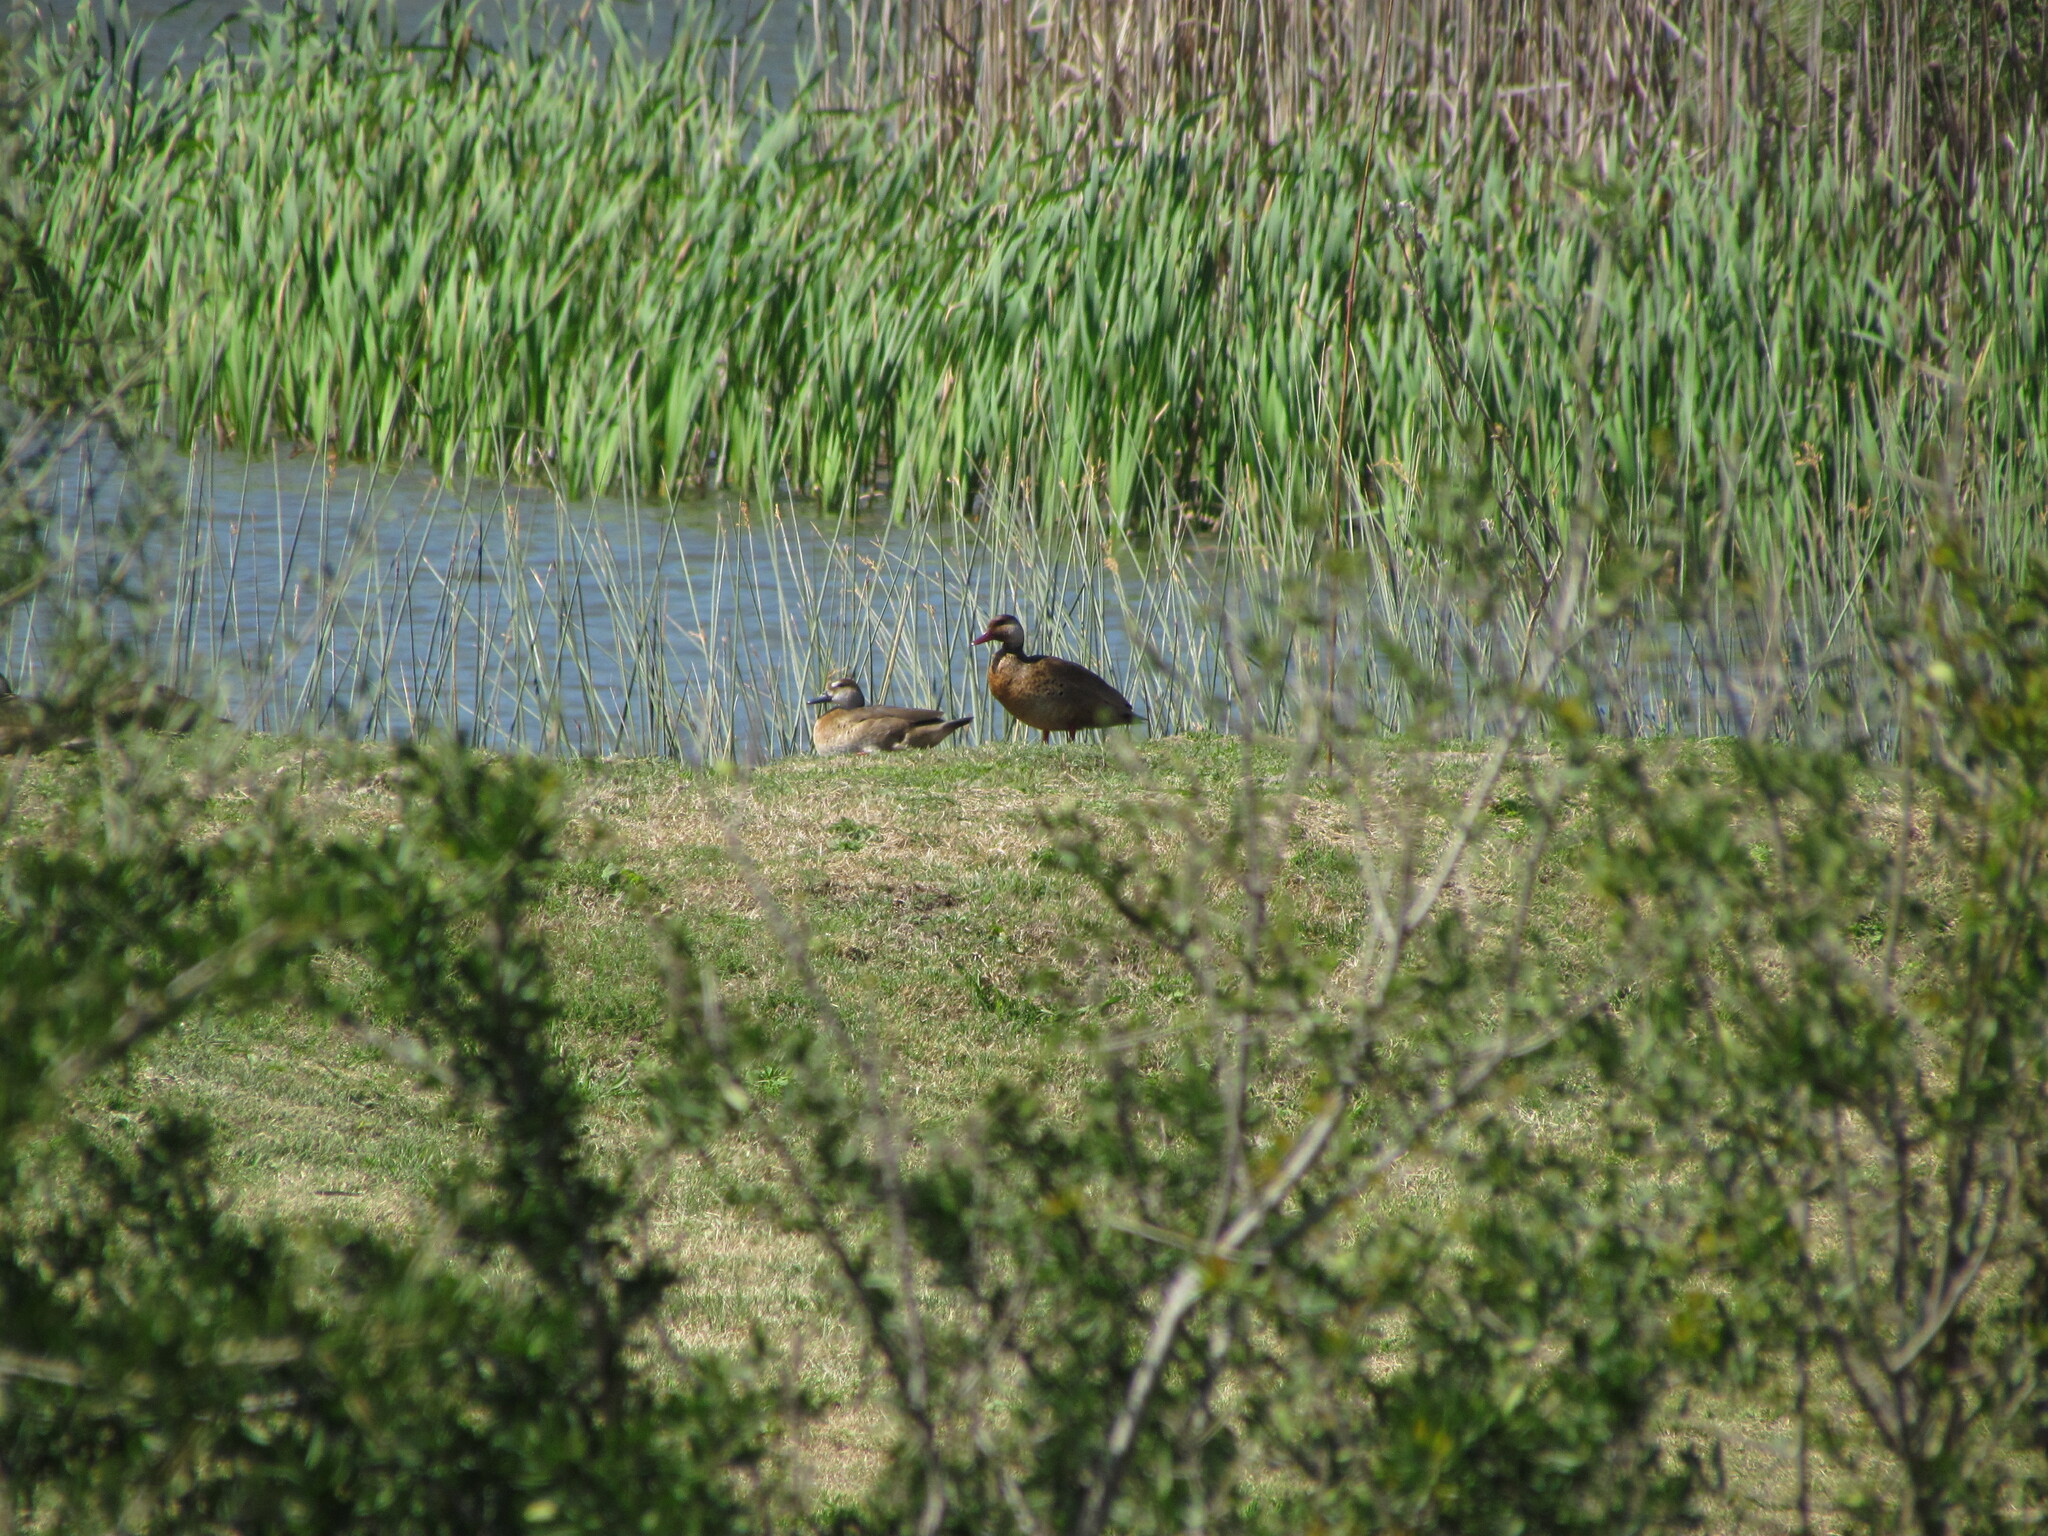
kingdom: Animalia
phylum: Chordata
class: Aves
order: Anseriformes
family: Anatidae
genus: Amazonetta
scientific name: Amazonetta brasiliensis
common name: Brazilian teal
